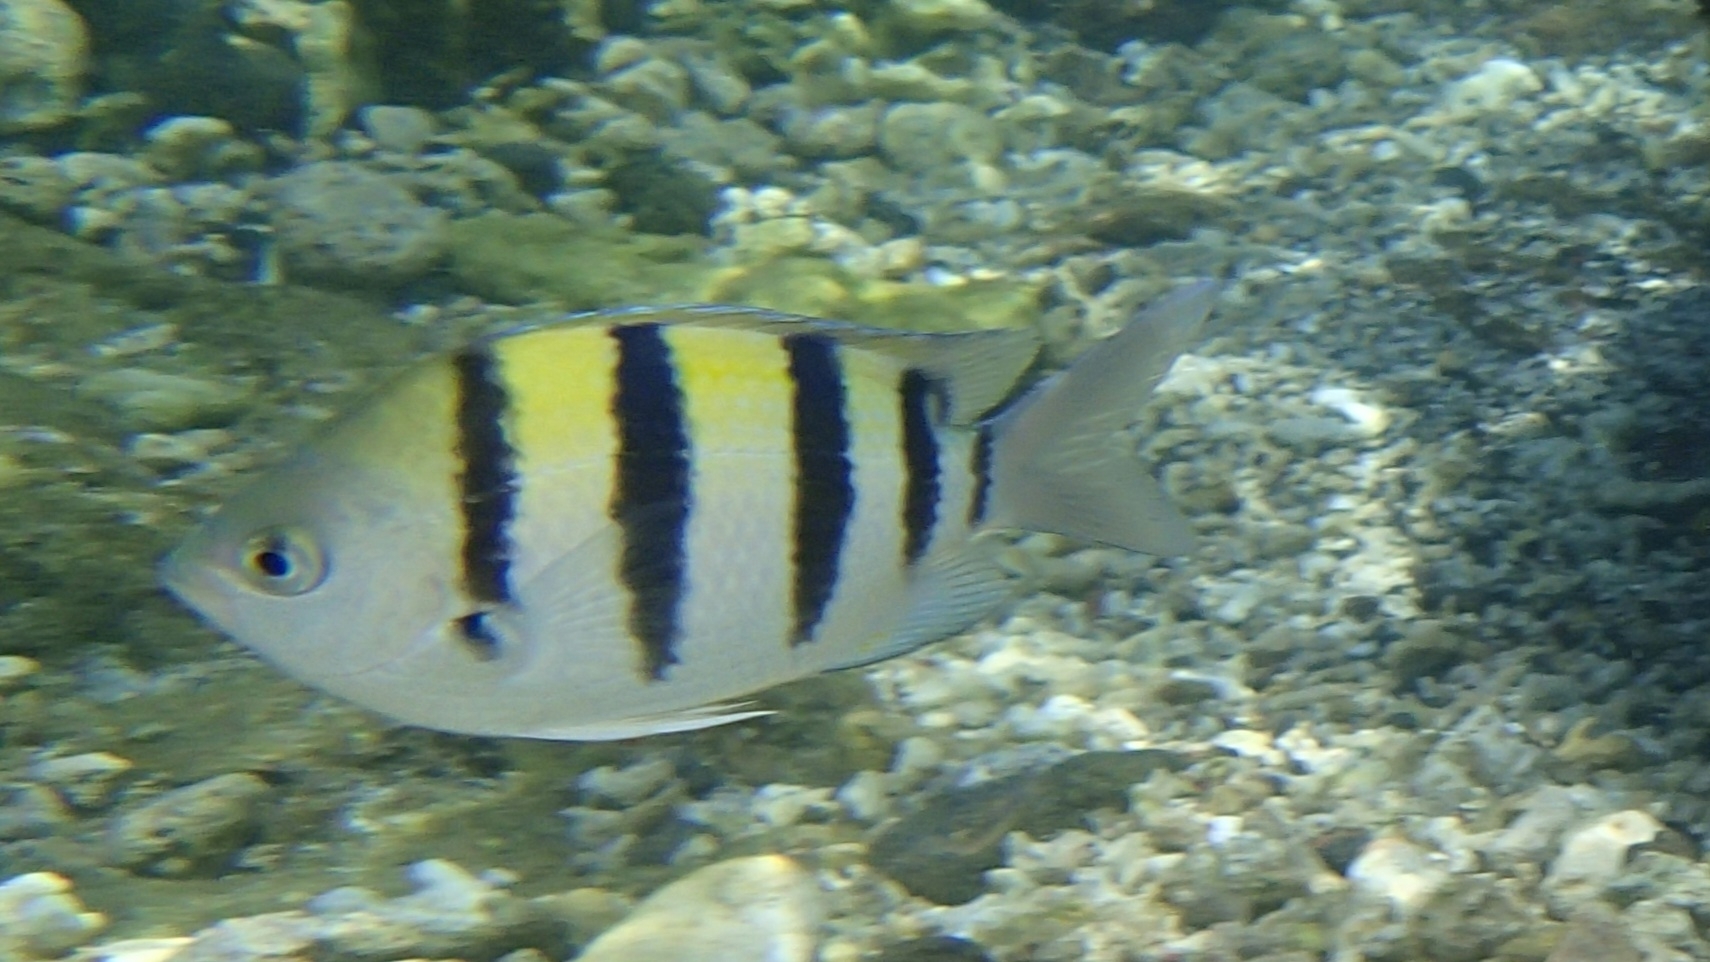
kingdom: Animalia
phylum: Chordata
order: Perciformes
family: Pomacentridae
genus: Abudefduf
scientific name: Abudefduf vaigiensis
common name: Indo-pacific sergeant
